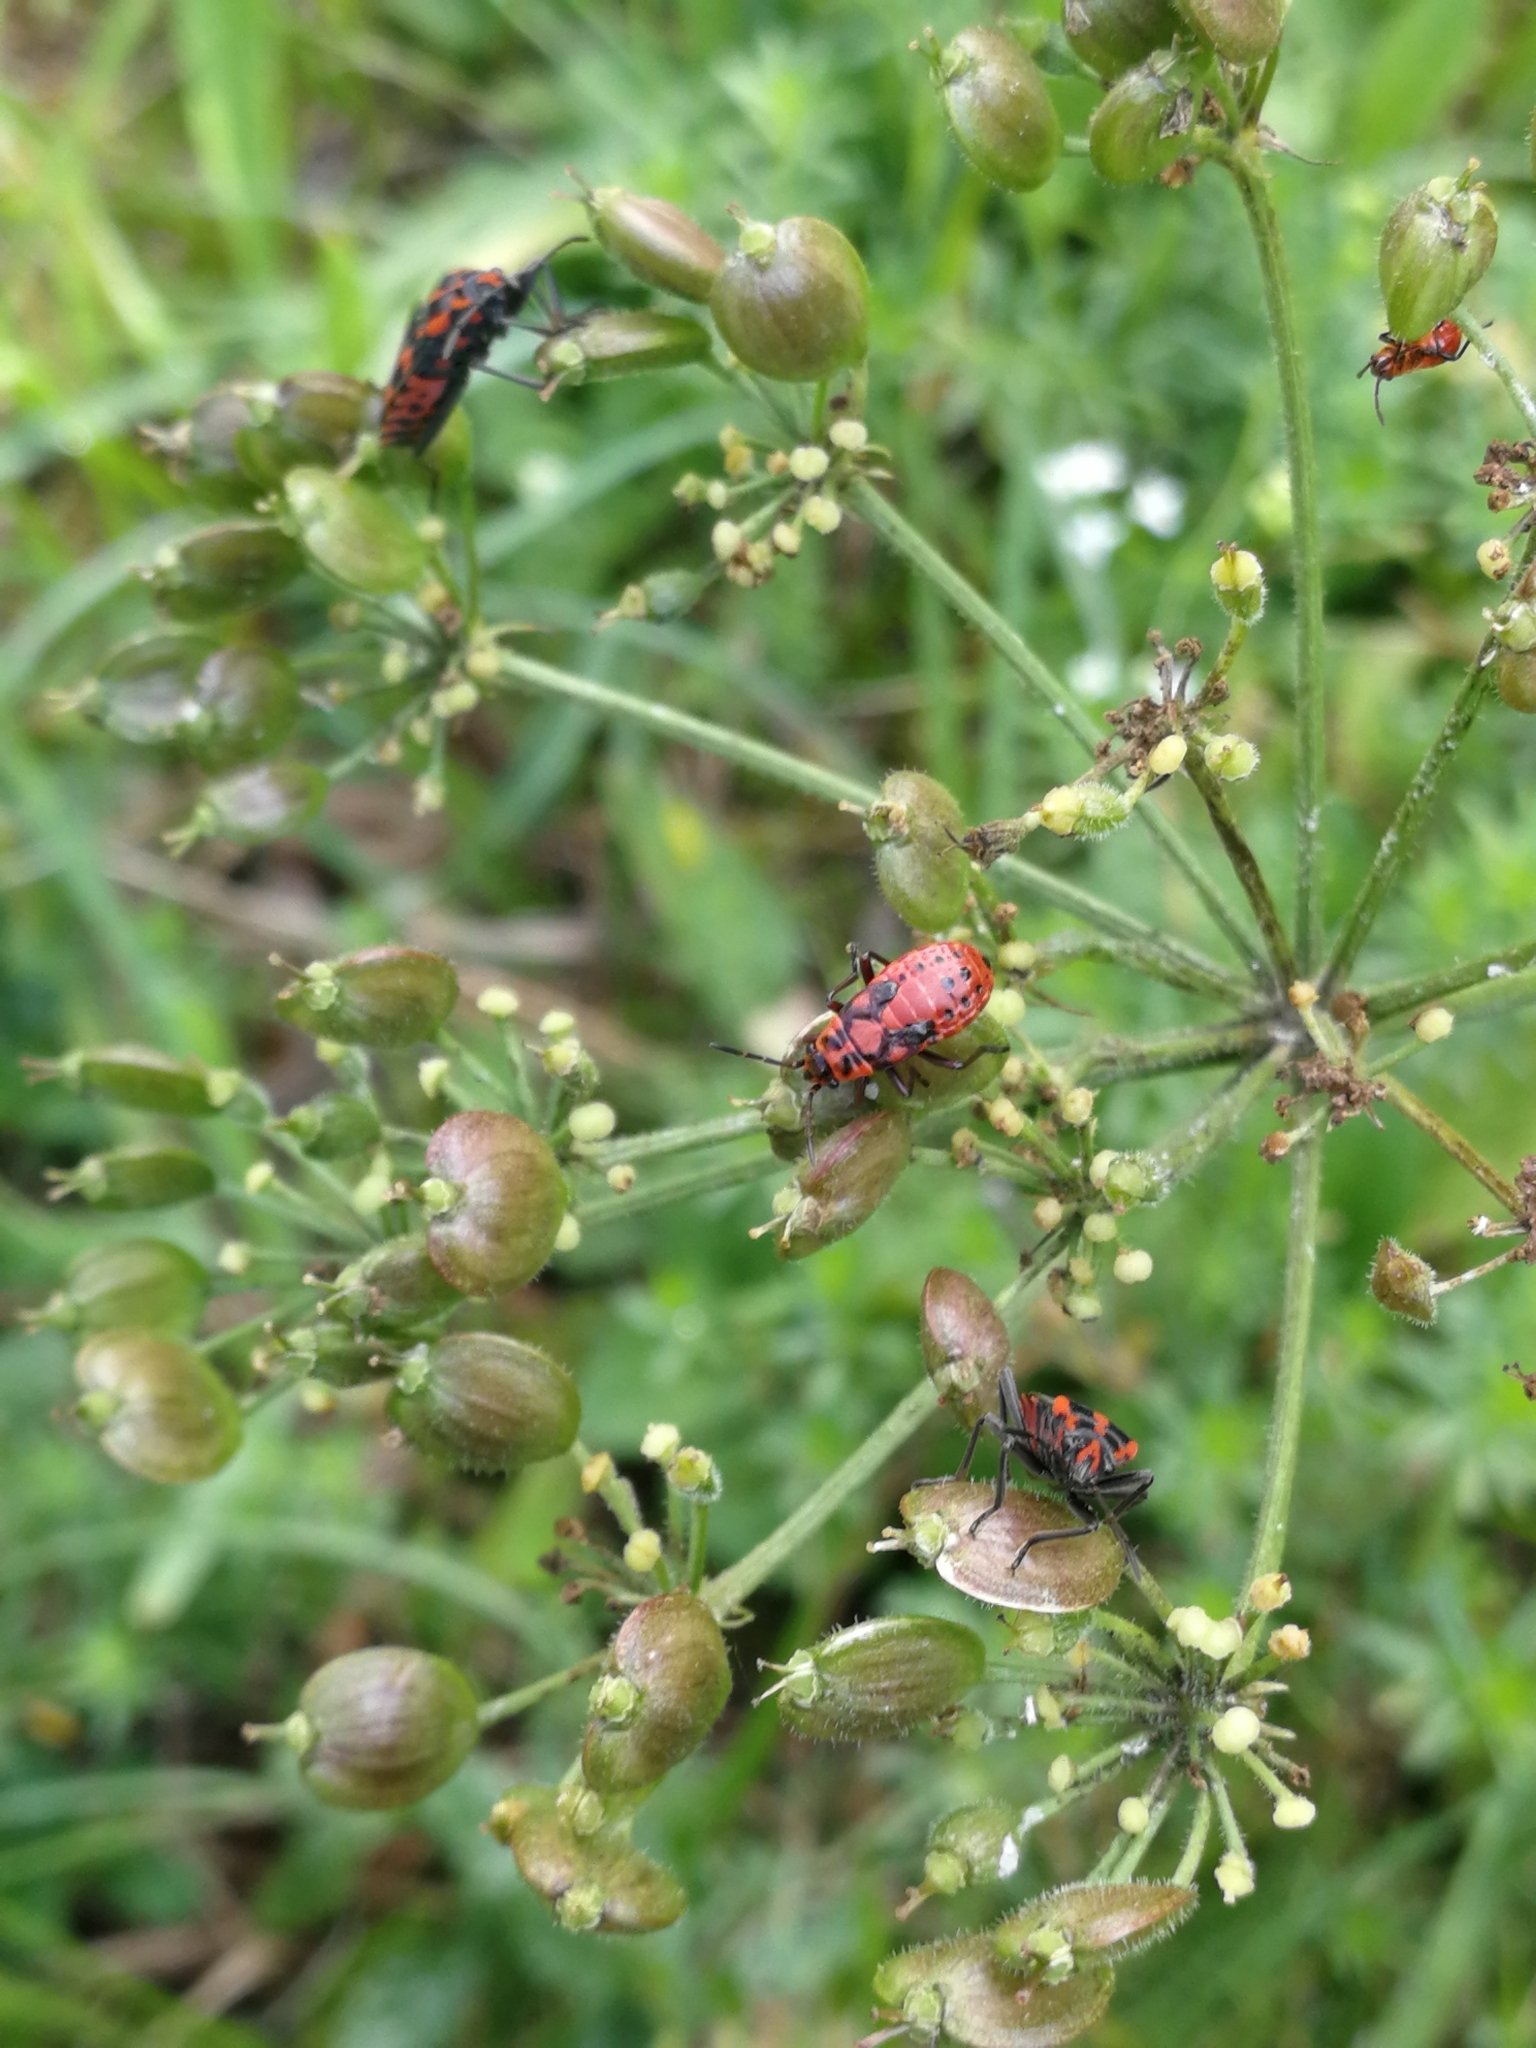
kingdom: Animalia
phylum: Arthropoda
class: Insecta
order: Hemiptera
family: Lygaeidae
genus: Spilostethus
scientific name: Spilostethus saxatilis
